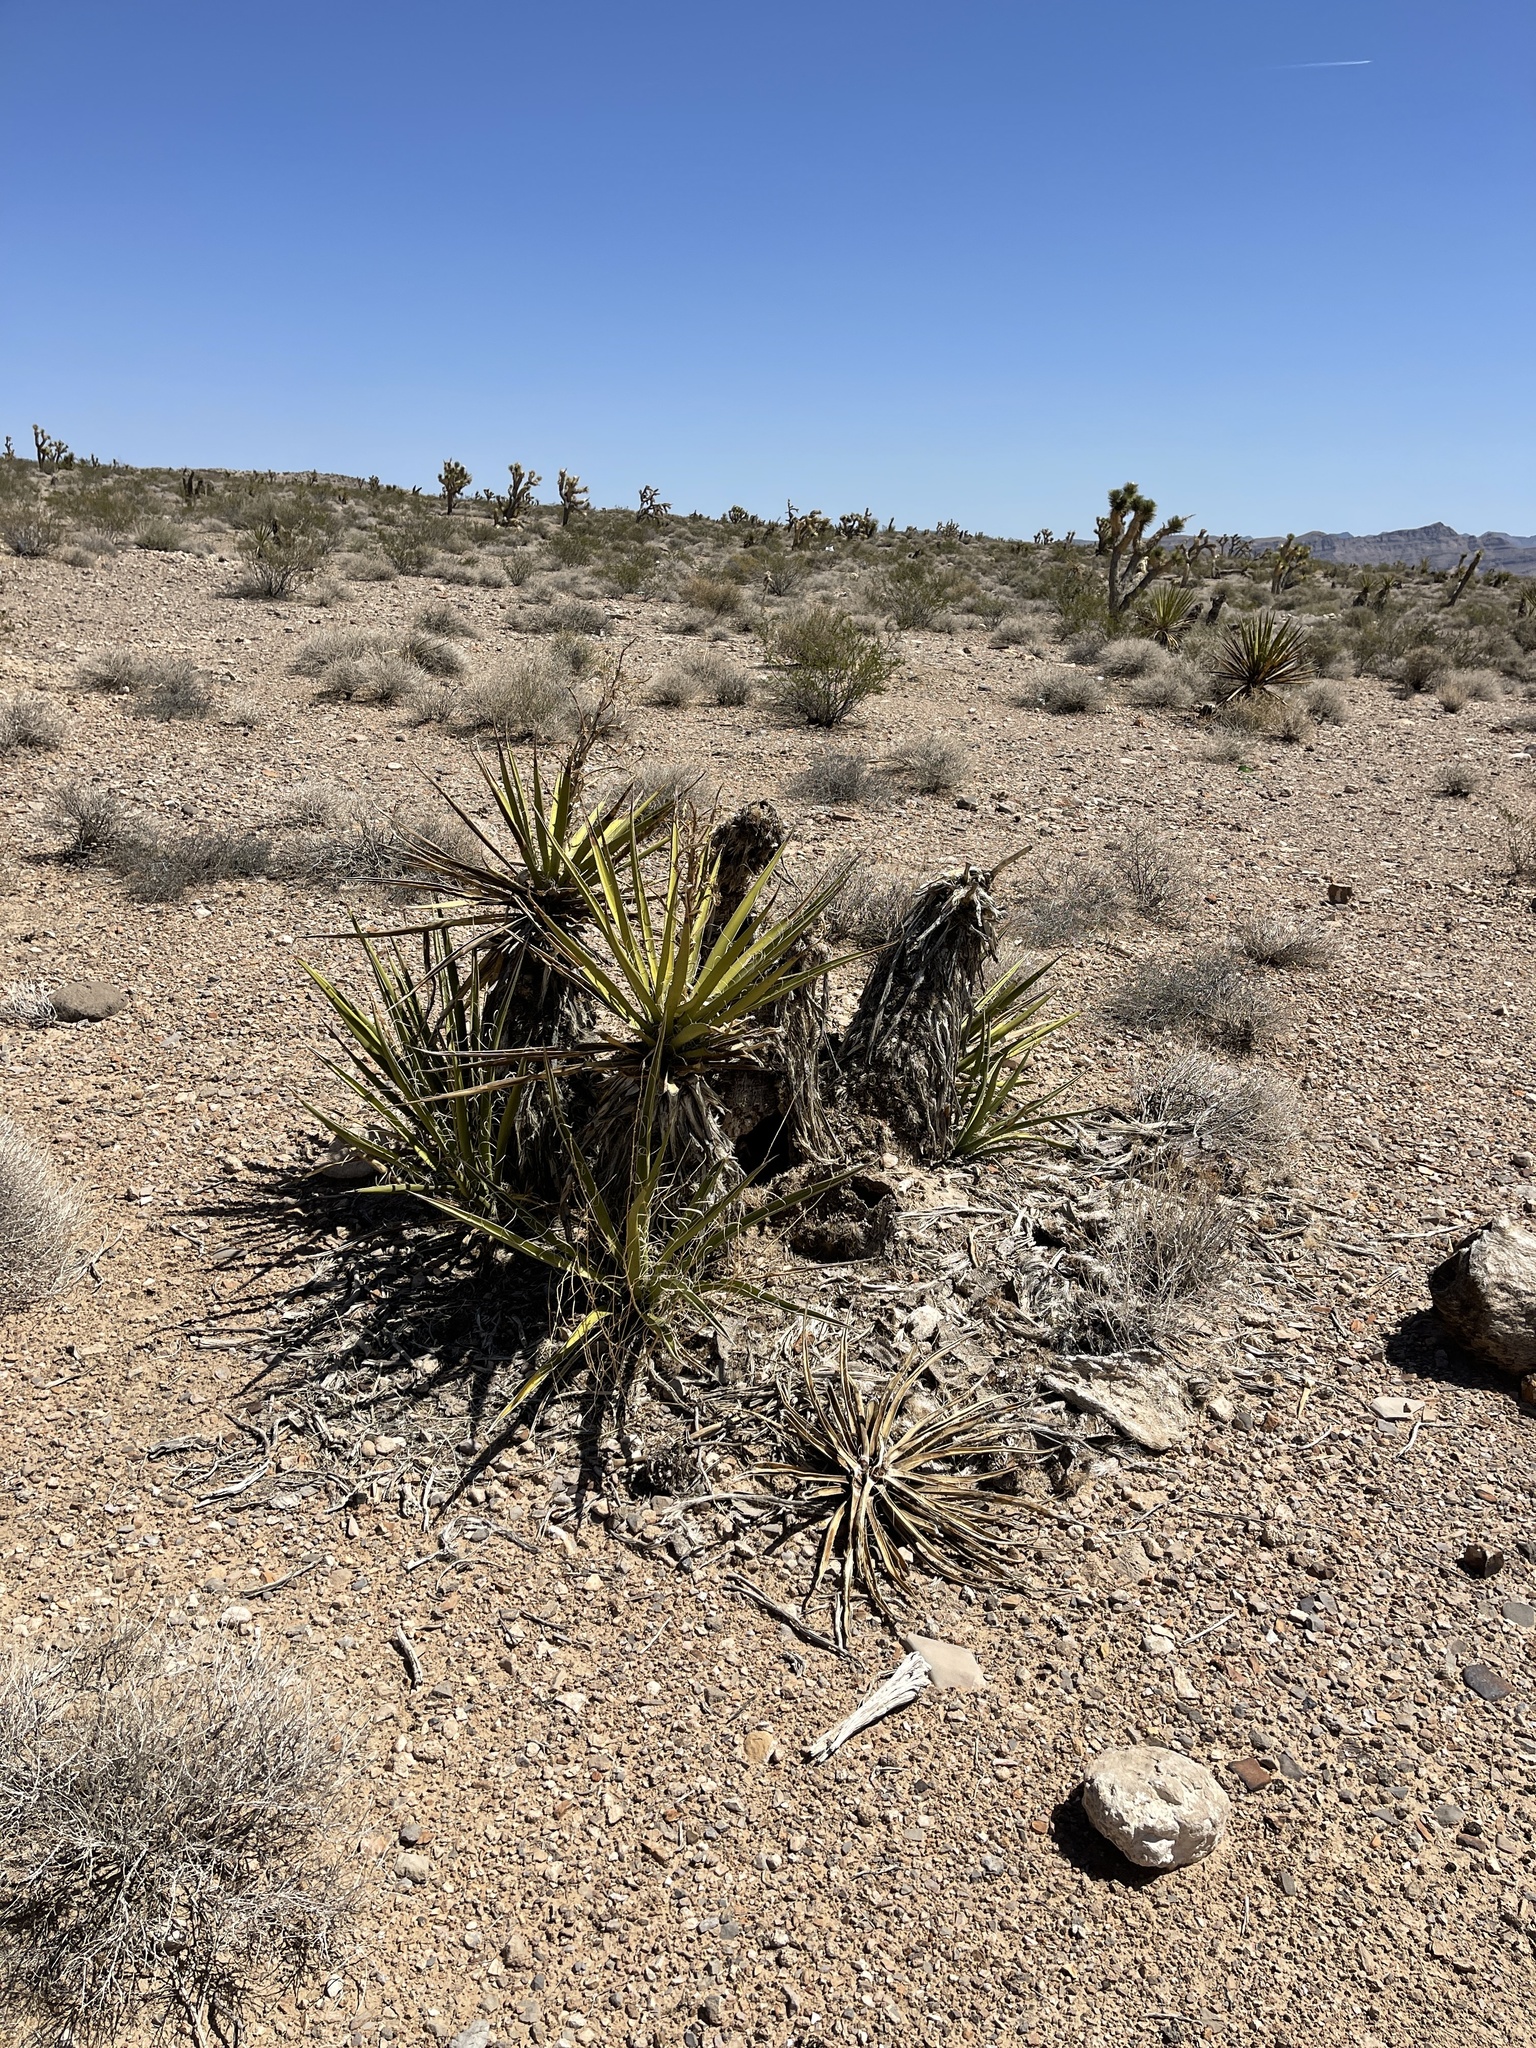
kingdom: Plantae
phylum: Tracheophyta
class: Liliopsida
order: Asparagales
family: Asparagaceae
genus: Yucca
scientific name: Yucca schidigera
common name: Mojave yucca
